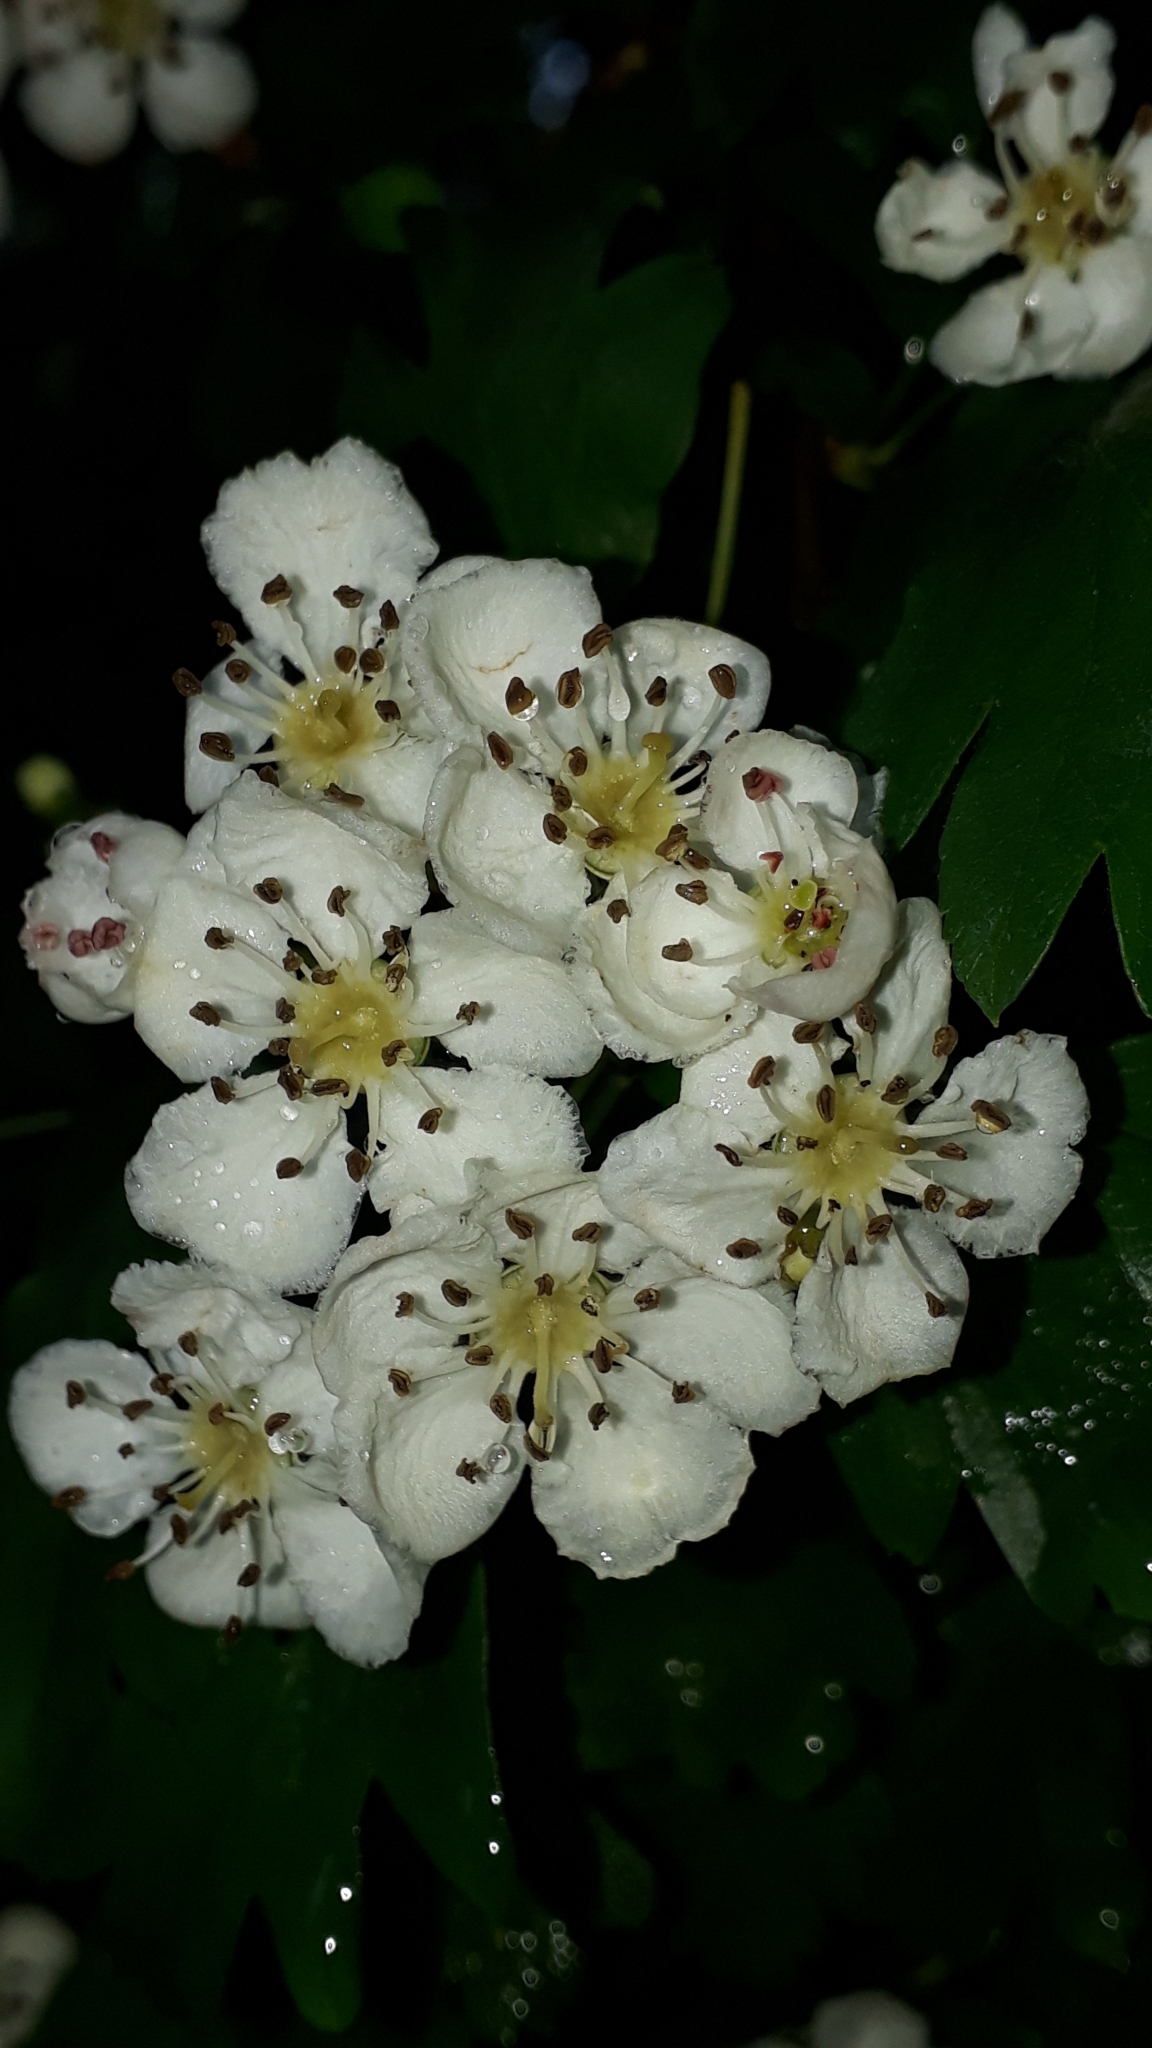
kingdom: Plantae
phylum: Tracheophyta
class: Magnoliopsida
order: Rosales
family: Rosaceae
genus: Crataegus
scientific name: Crataegus monogyna
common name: Hawthorn
